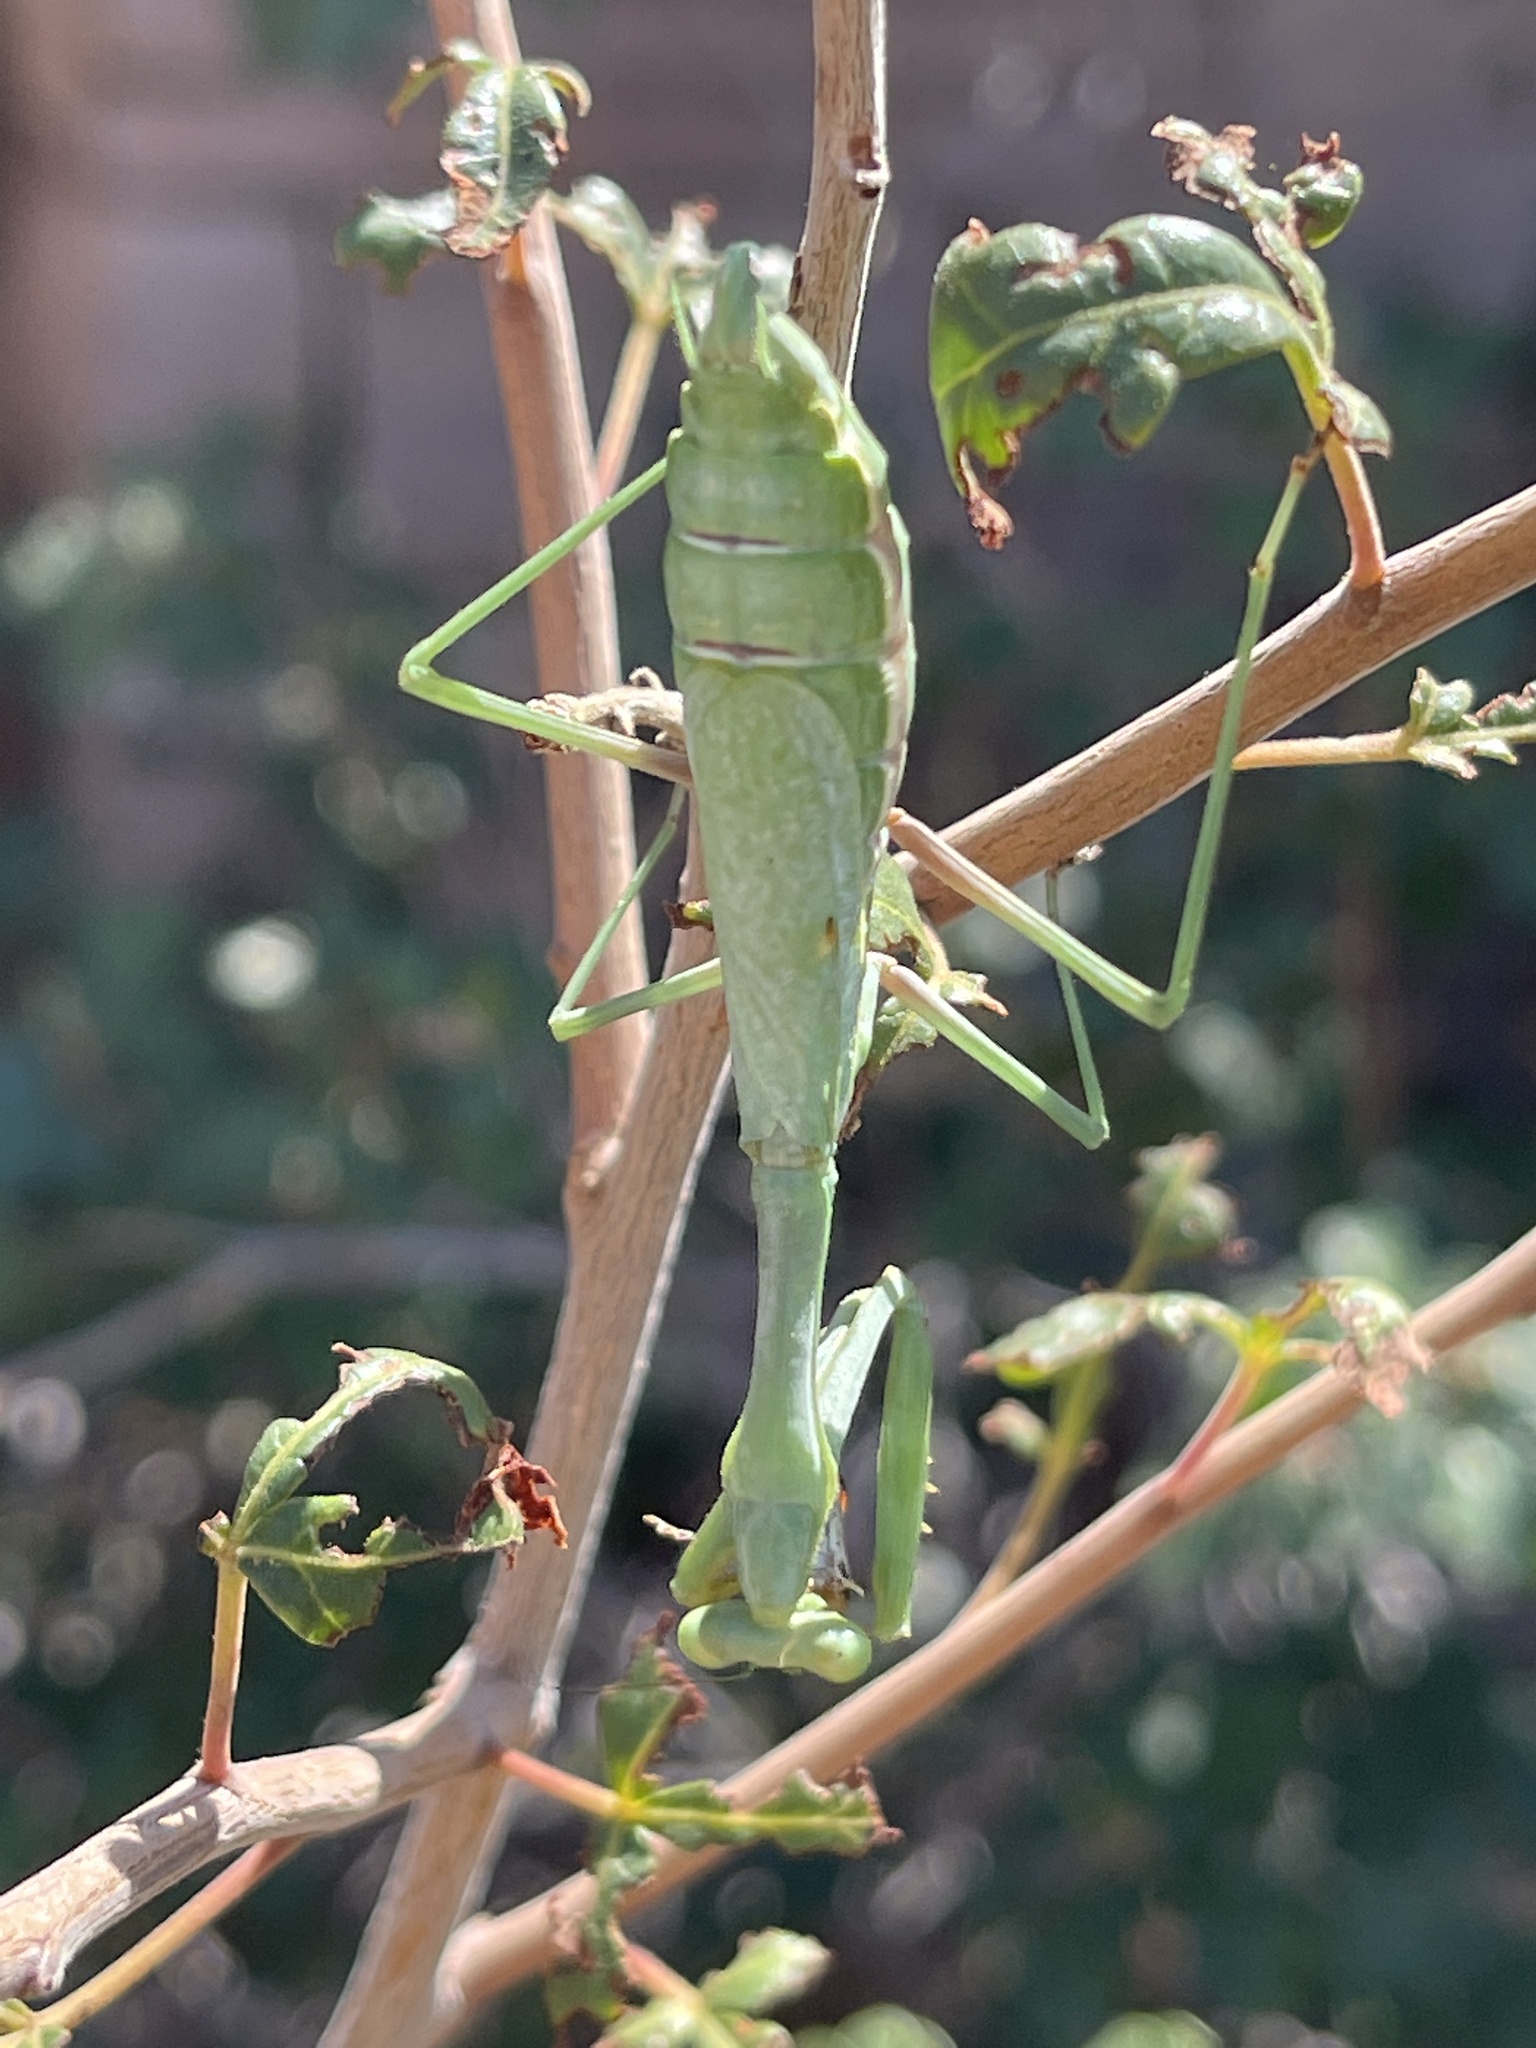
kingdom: Animalia
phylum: Arthropoda
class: Insecta
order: Mantodea
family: Mantidae
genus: Stagmomantis
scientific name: Stagmomantis californica
